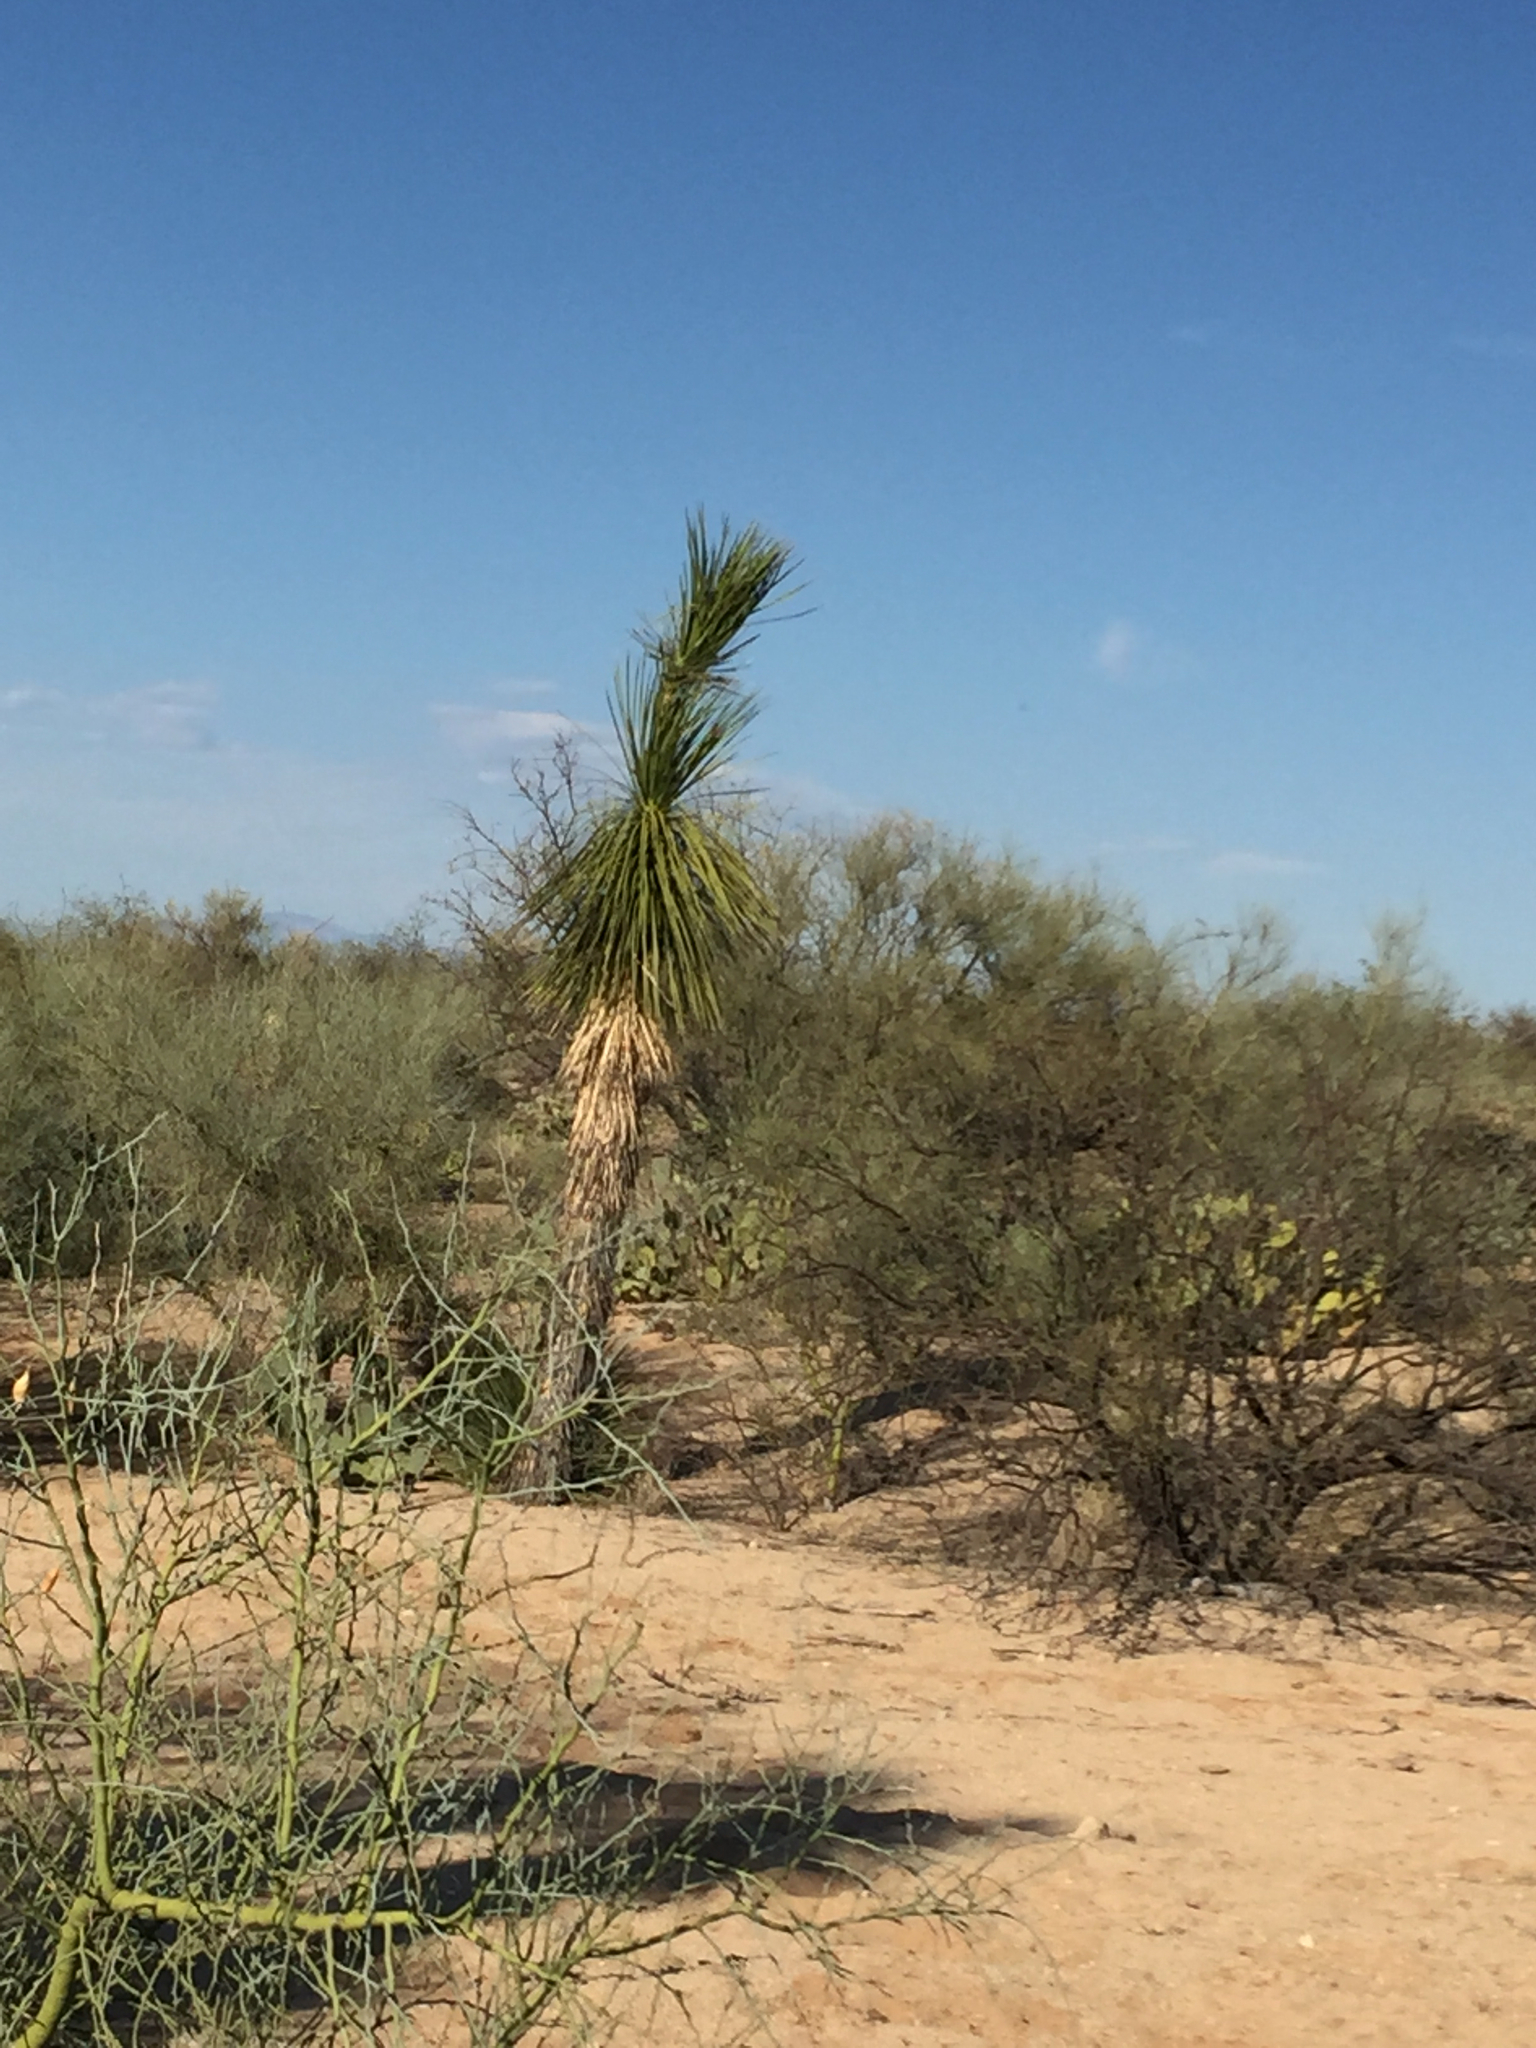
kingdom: Plantae
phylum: Tracheophyta
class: Liliopsida
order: Asparagales
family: Asparagaceae
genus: Yucca
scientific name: Yucca elata
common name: Palmella
